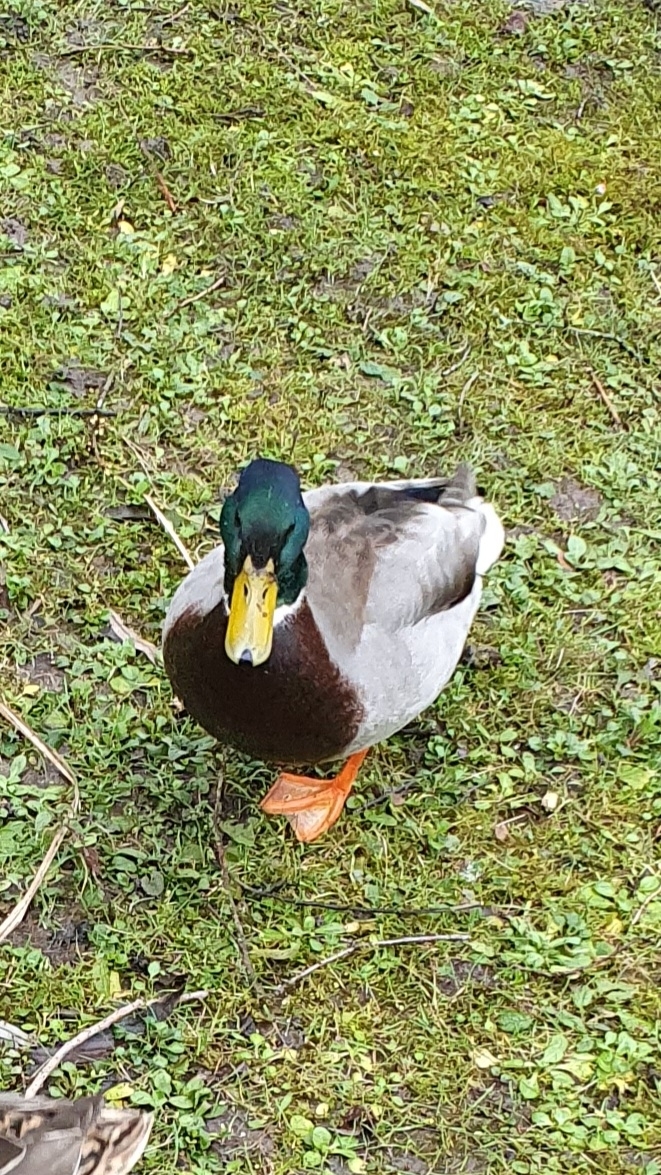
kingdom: Animalia
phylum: Chordata
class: Aves
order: Anseriformes
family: Anatidae
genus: Anas
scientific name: Anas platyrhynchos
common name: Mallard
